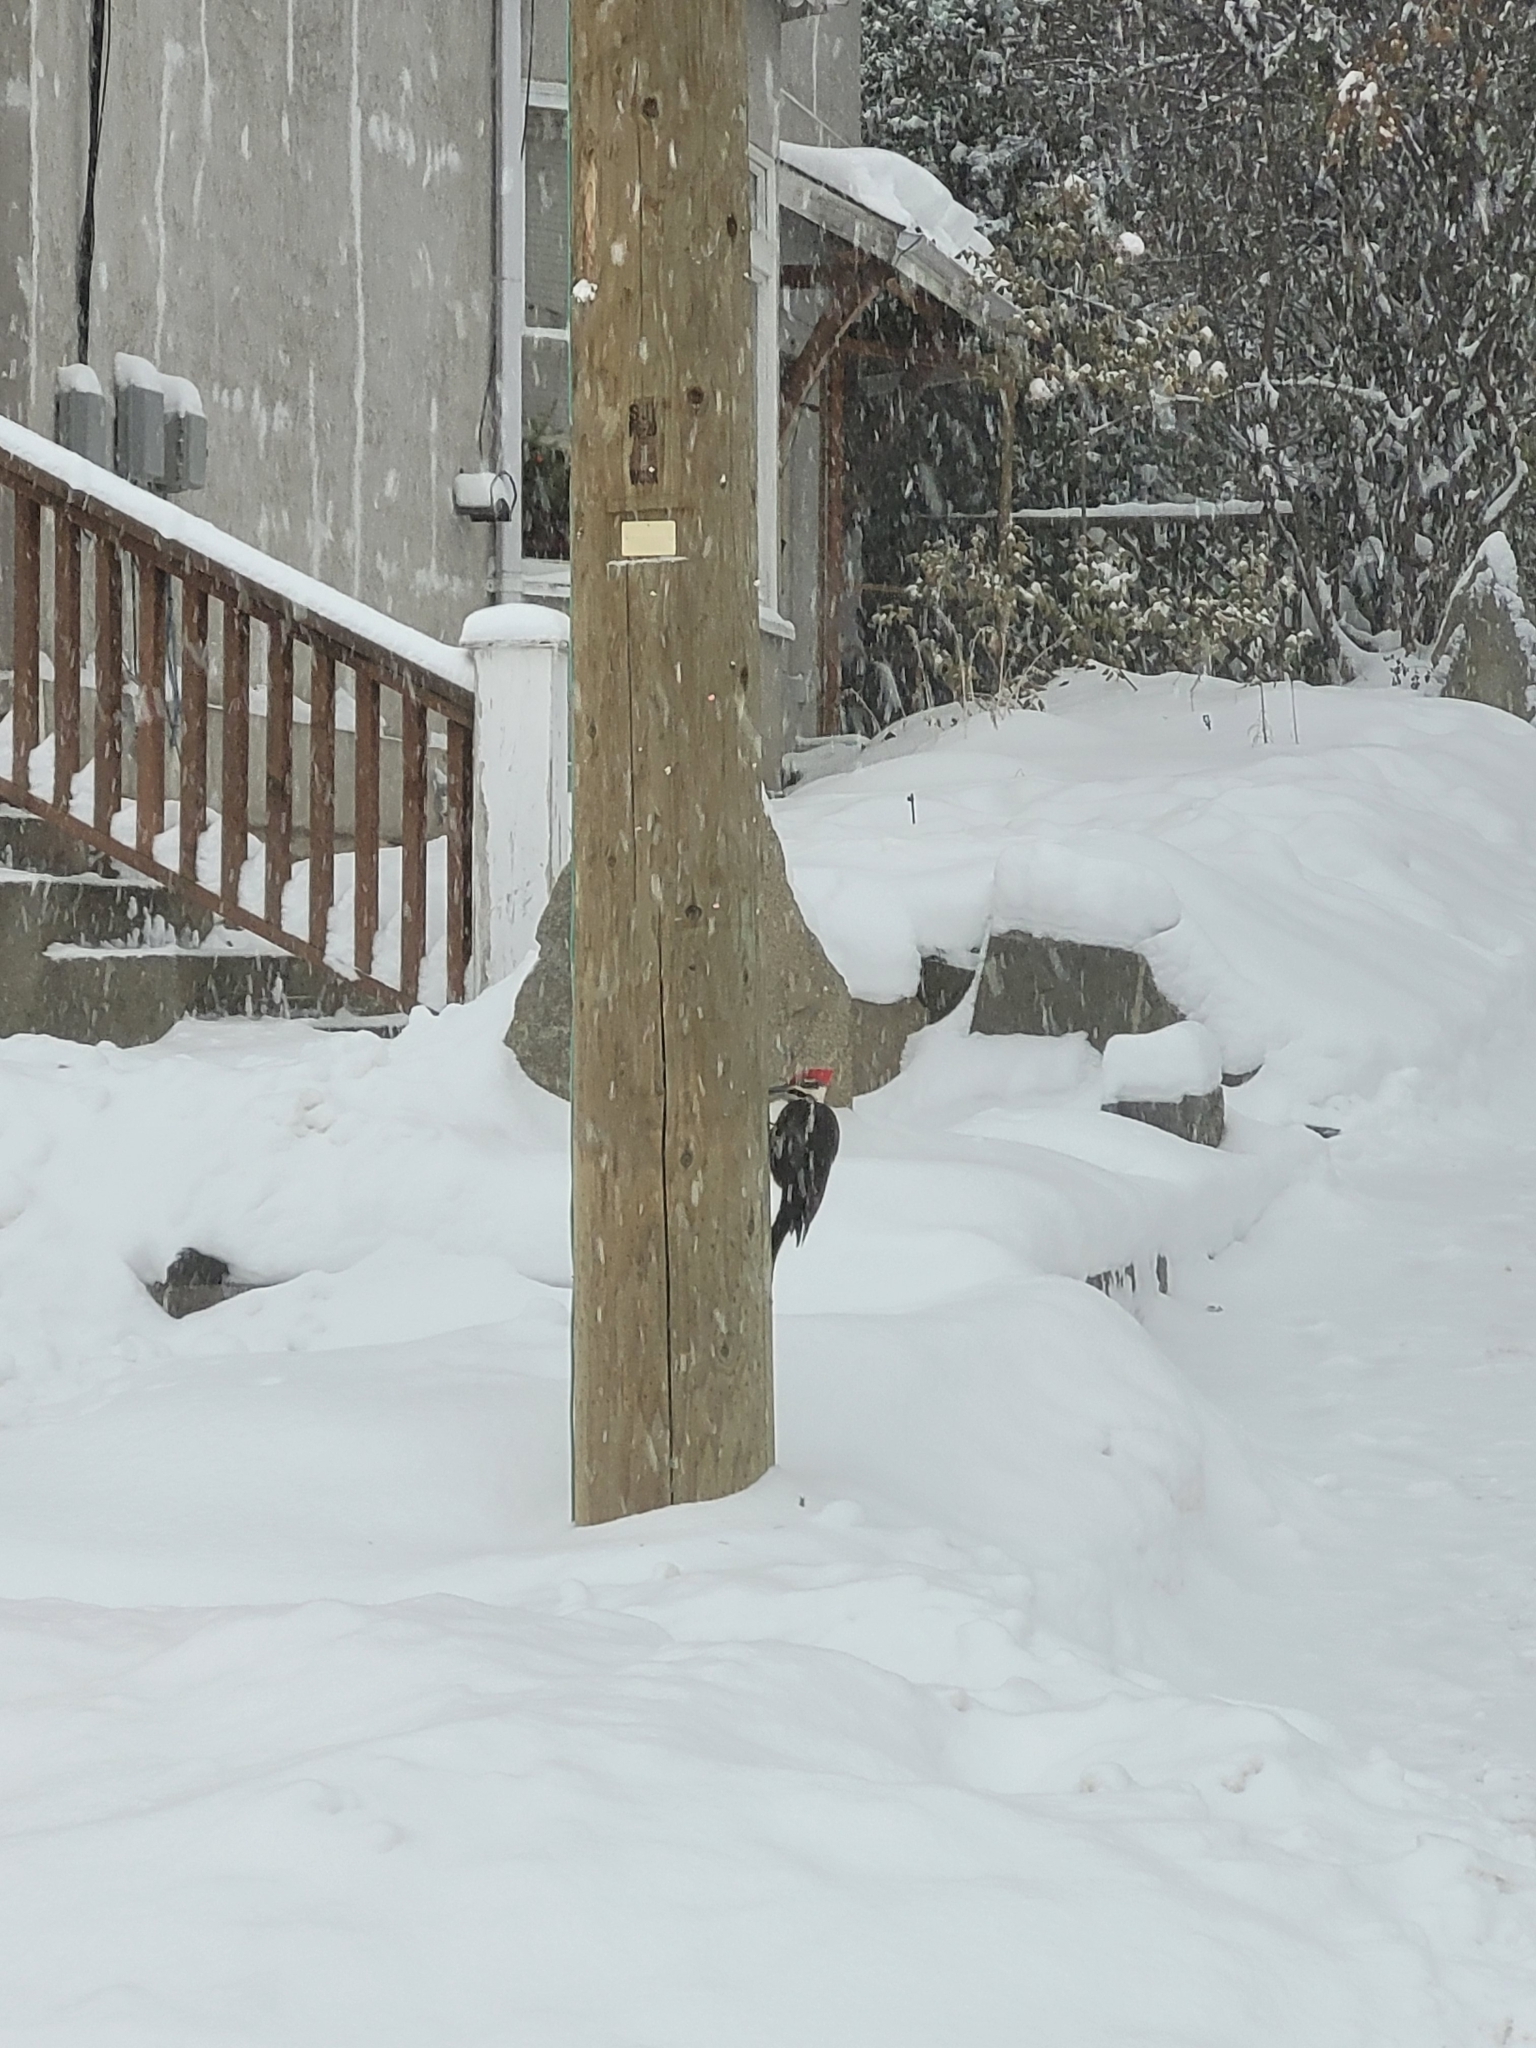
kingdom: Animalia
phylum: Chordata
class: Aves
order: Piciformes
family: Picidae
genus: Dryocopus
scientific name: Dryocopus pileatus
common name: Pileated woodpecker
